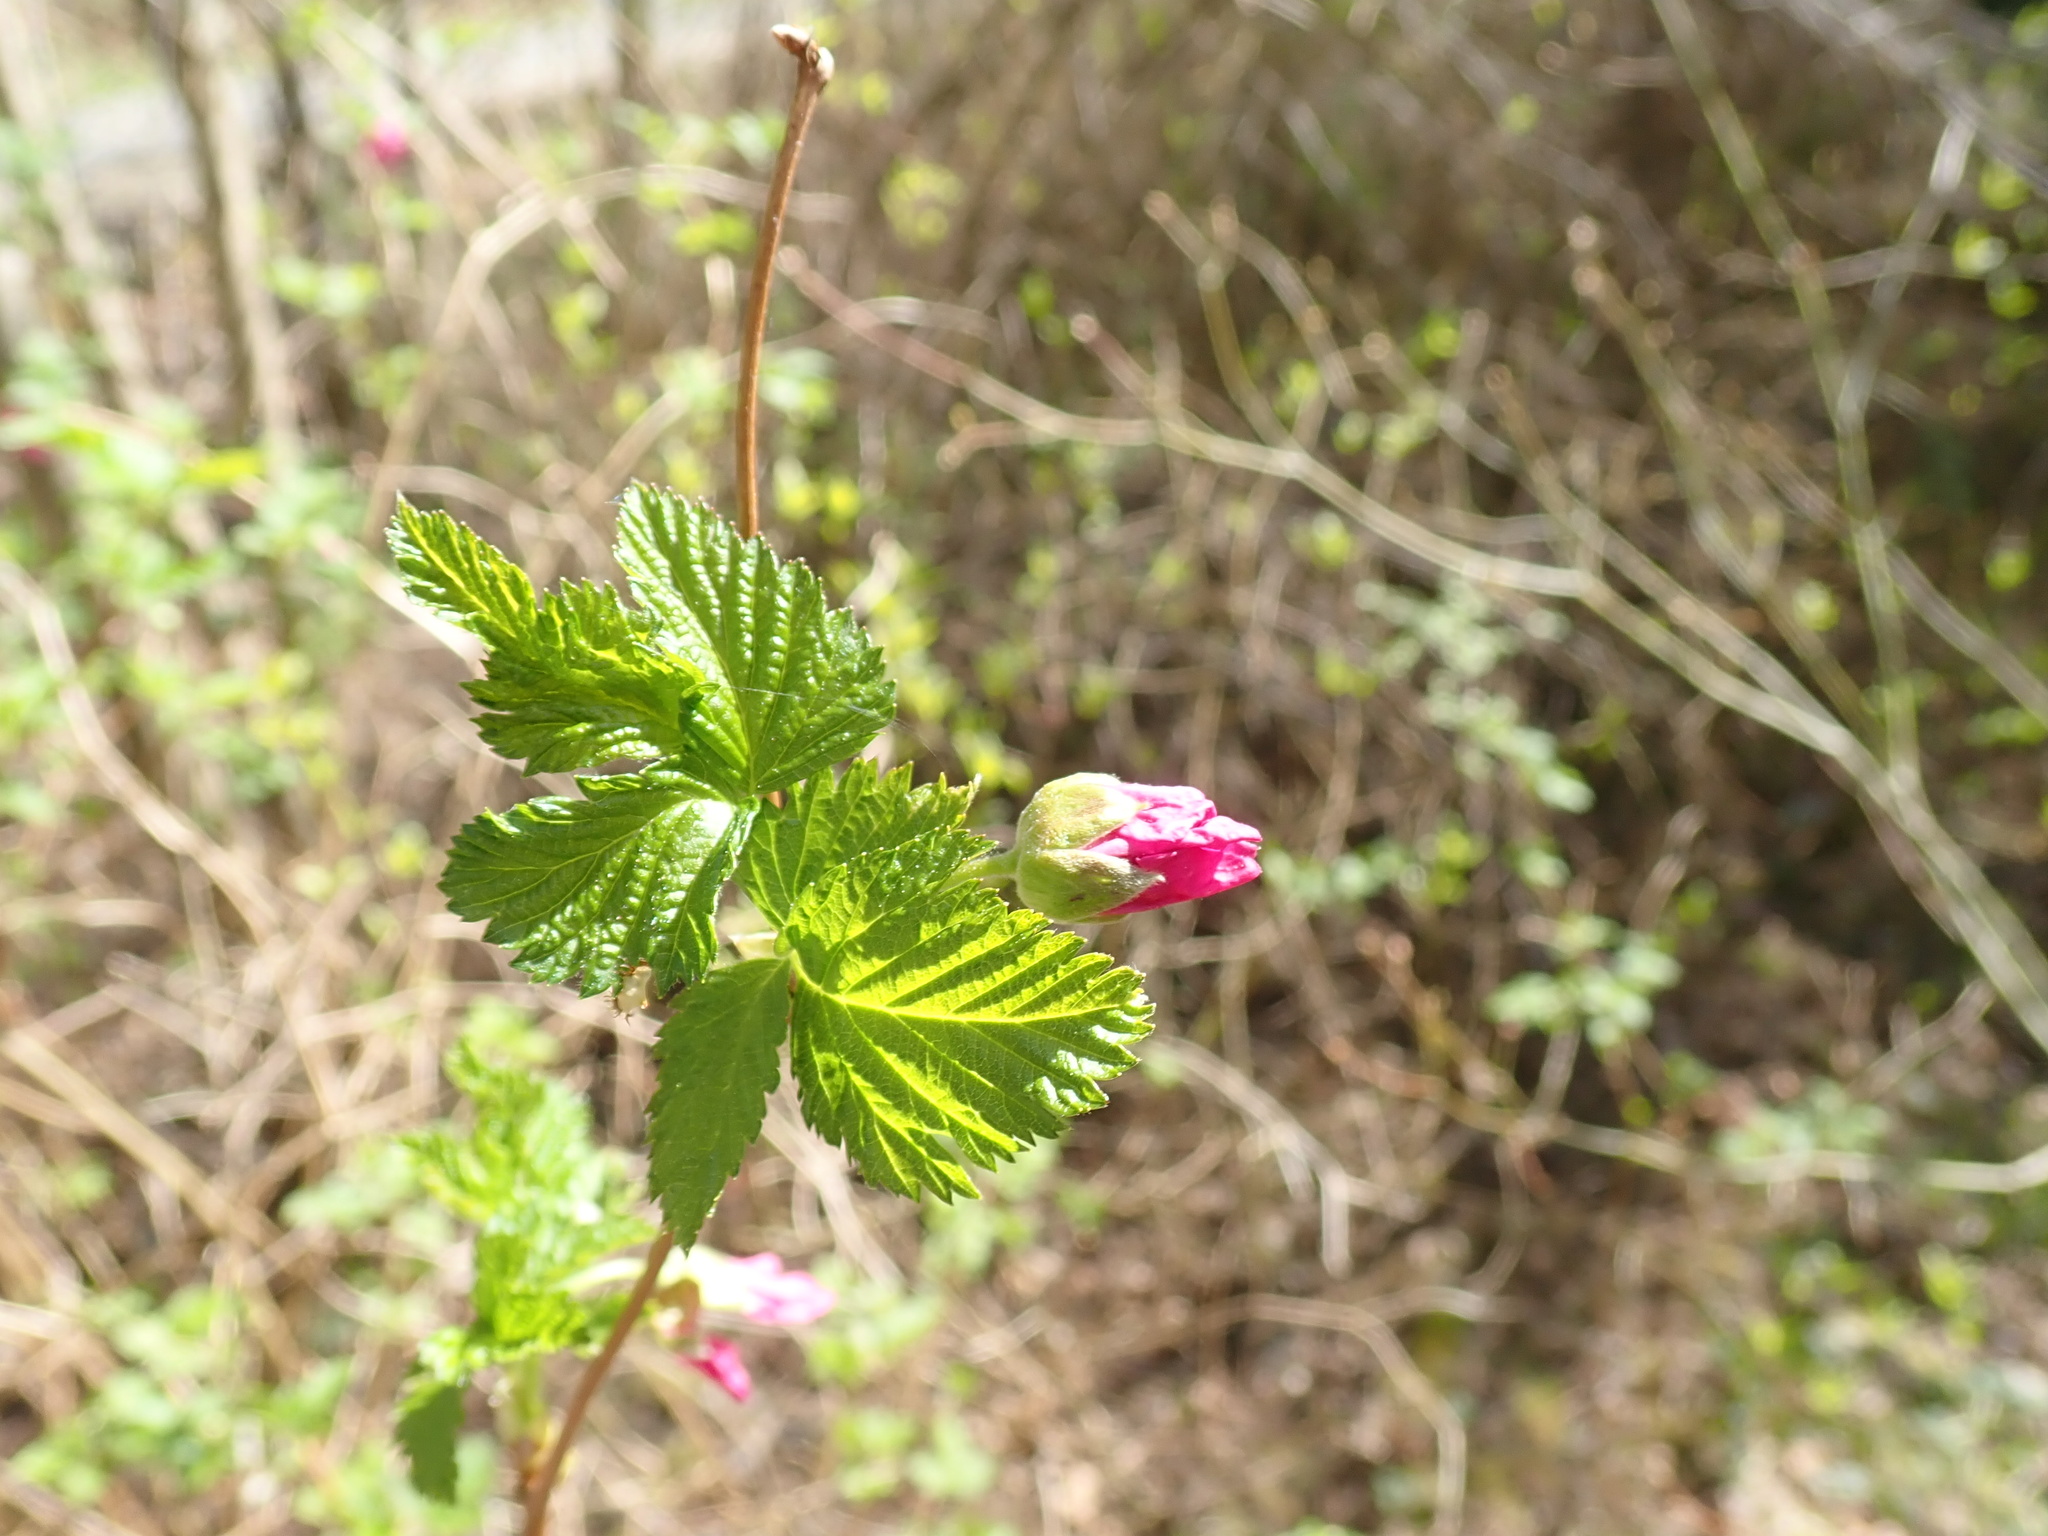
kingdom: Plantae
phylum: Tracheophyta
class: Magnoliopsida
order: Rosales
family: Rosaceae
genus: Rubus
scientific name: Rubus spectabilis
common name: Salmonberry
